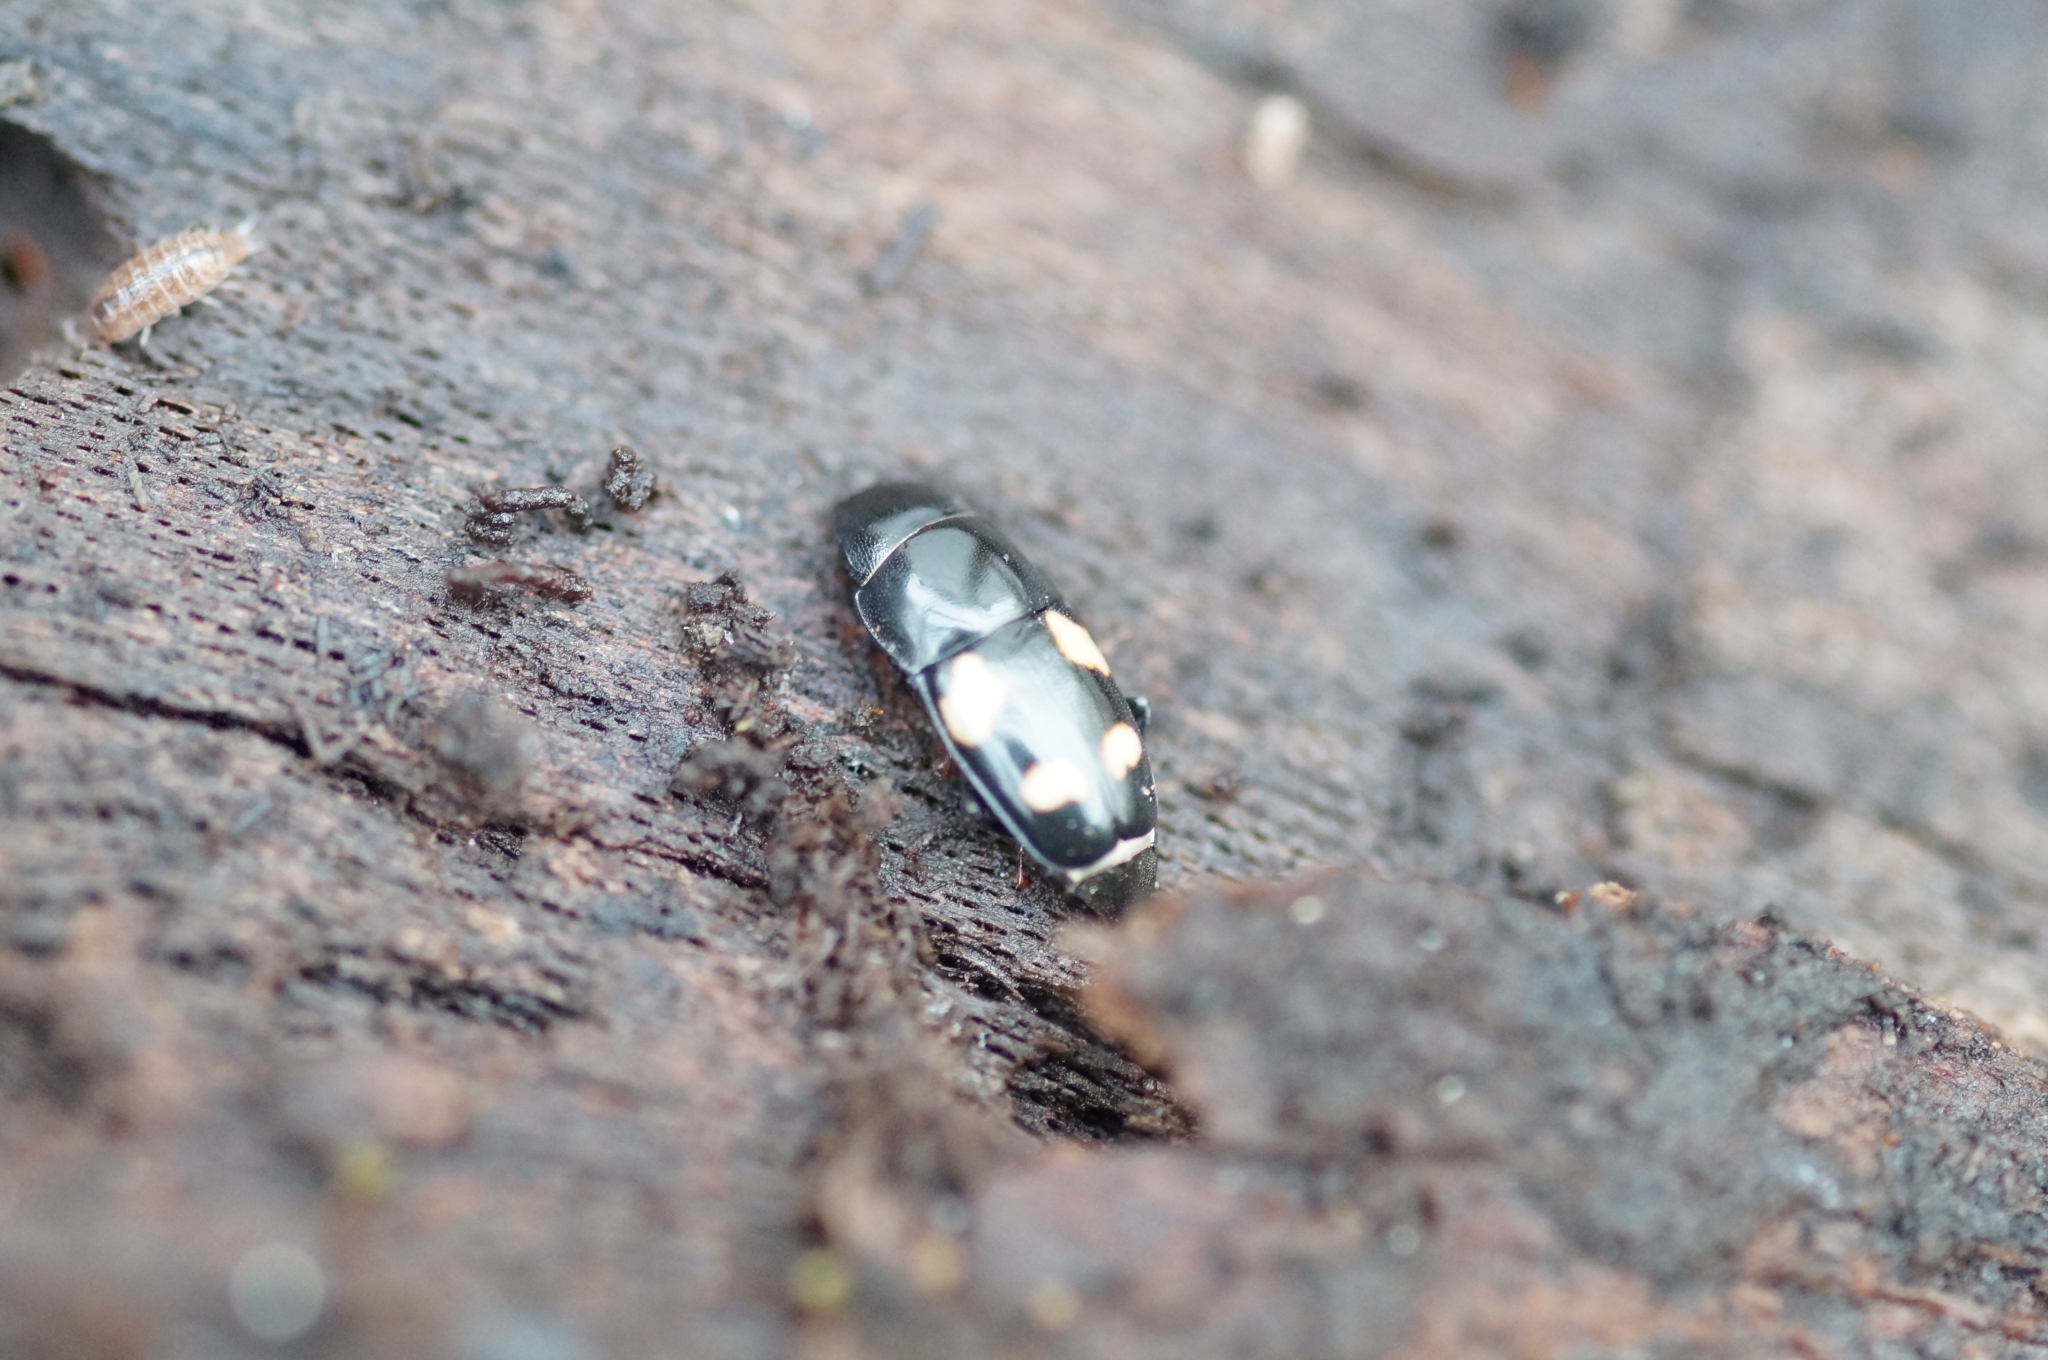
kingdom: Animalia
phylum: Arthropoda
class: Insecta
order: Coleoptera
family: Nitidulidae
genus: Glischrochilus
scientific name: Glischrochilus quadrisignatus
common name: Picnic beetle
